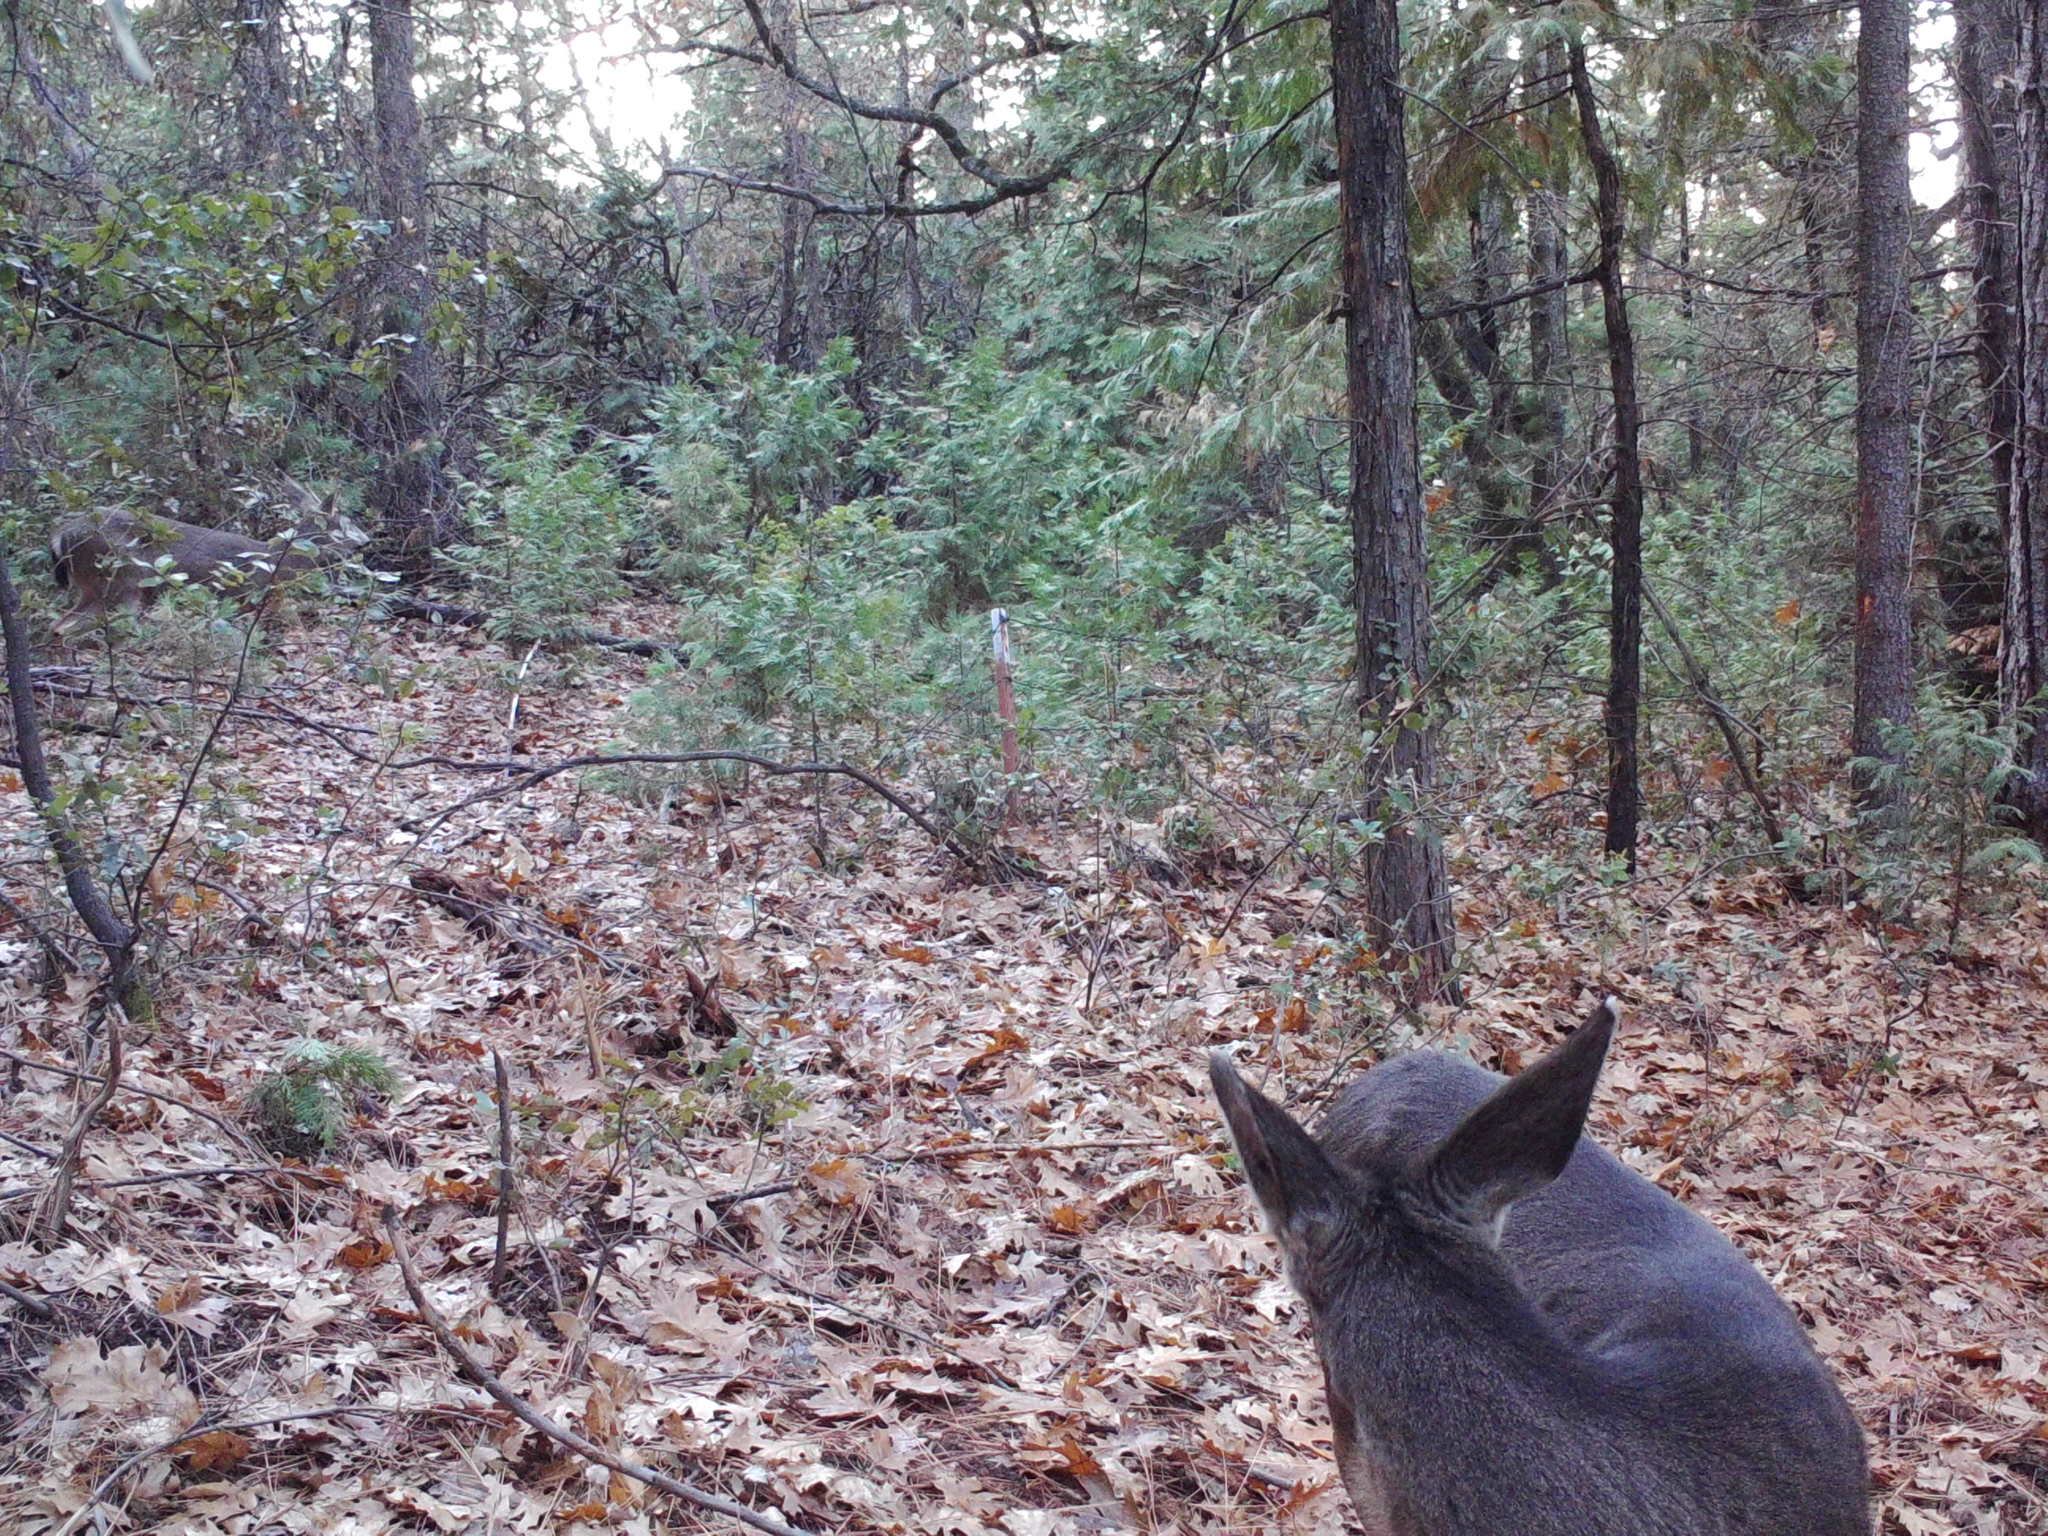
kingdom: Animalia
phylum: Chordata
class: Mammalia
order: Artiodactyla
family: Cervidae
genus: Odocoileus
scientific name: Odocoileus hemionus
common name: Mule deer
